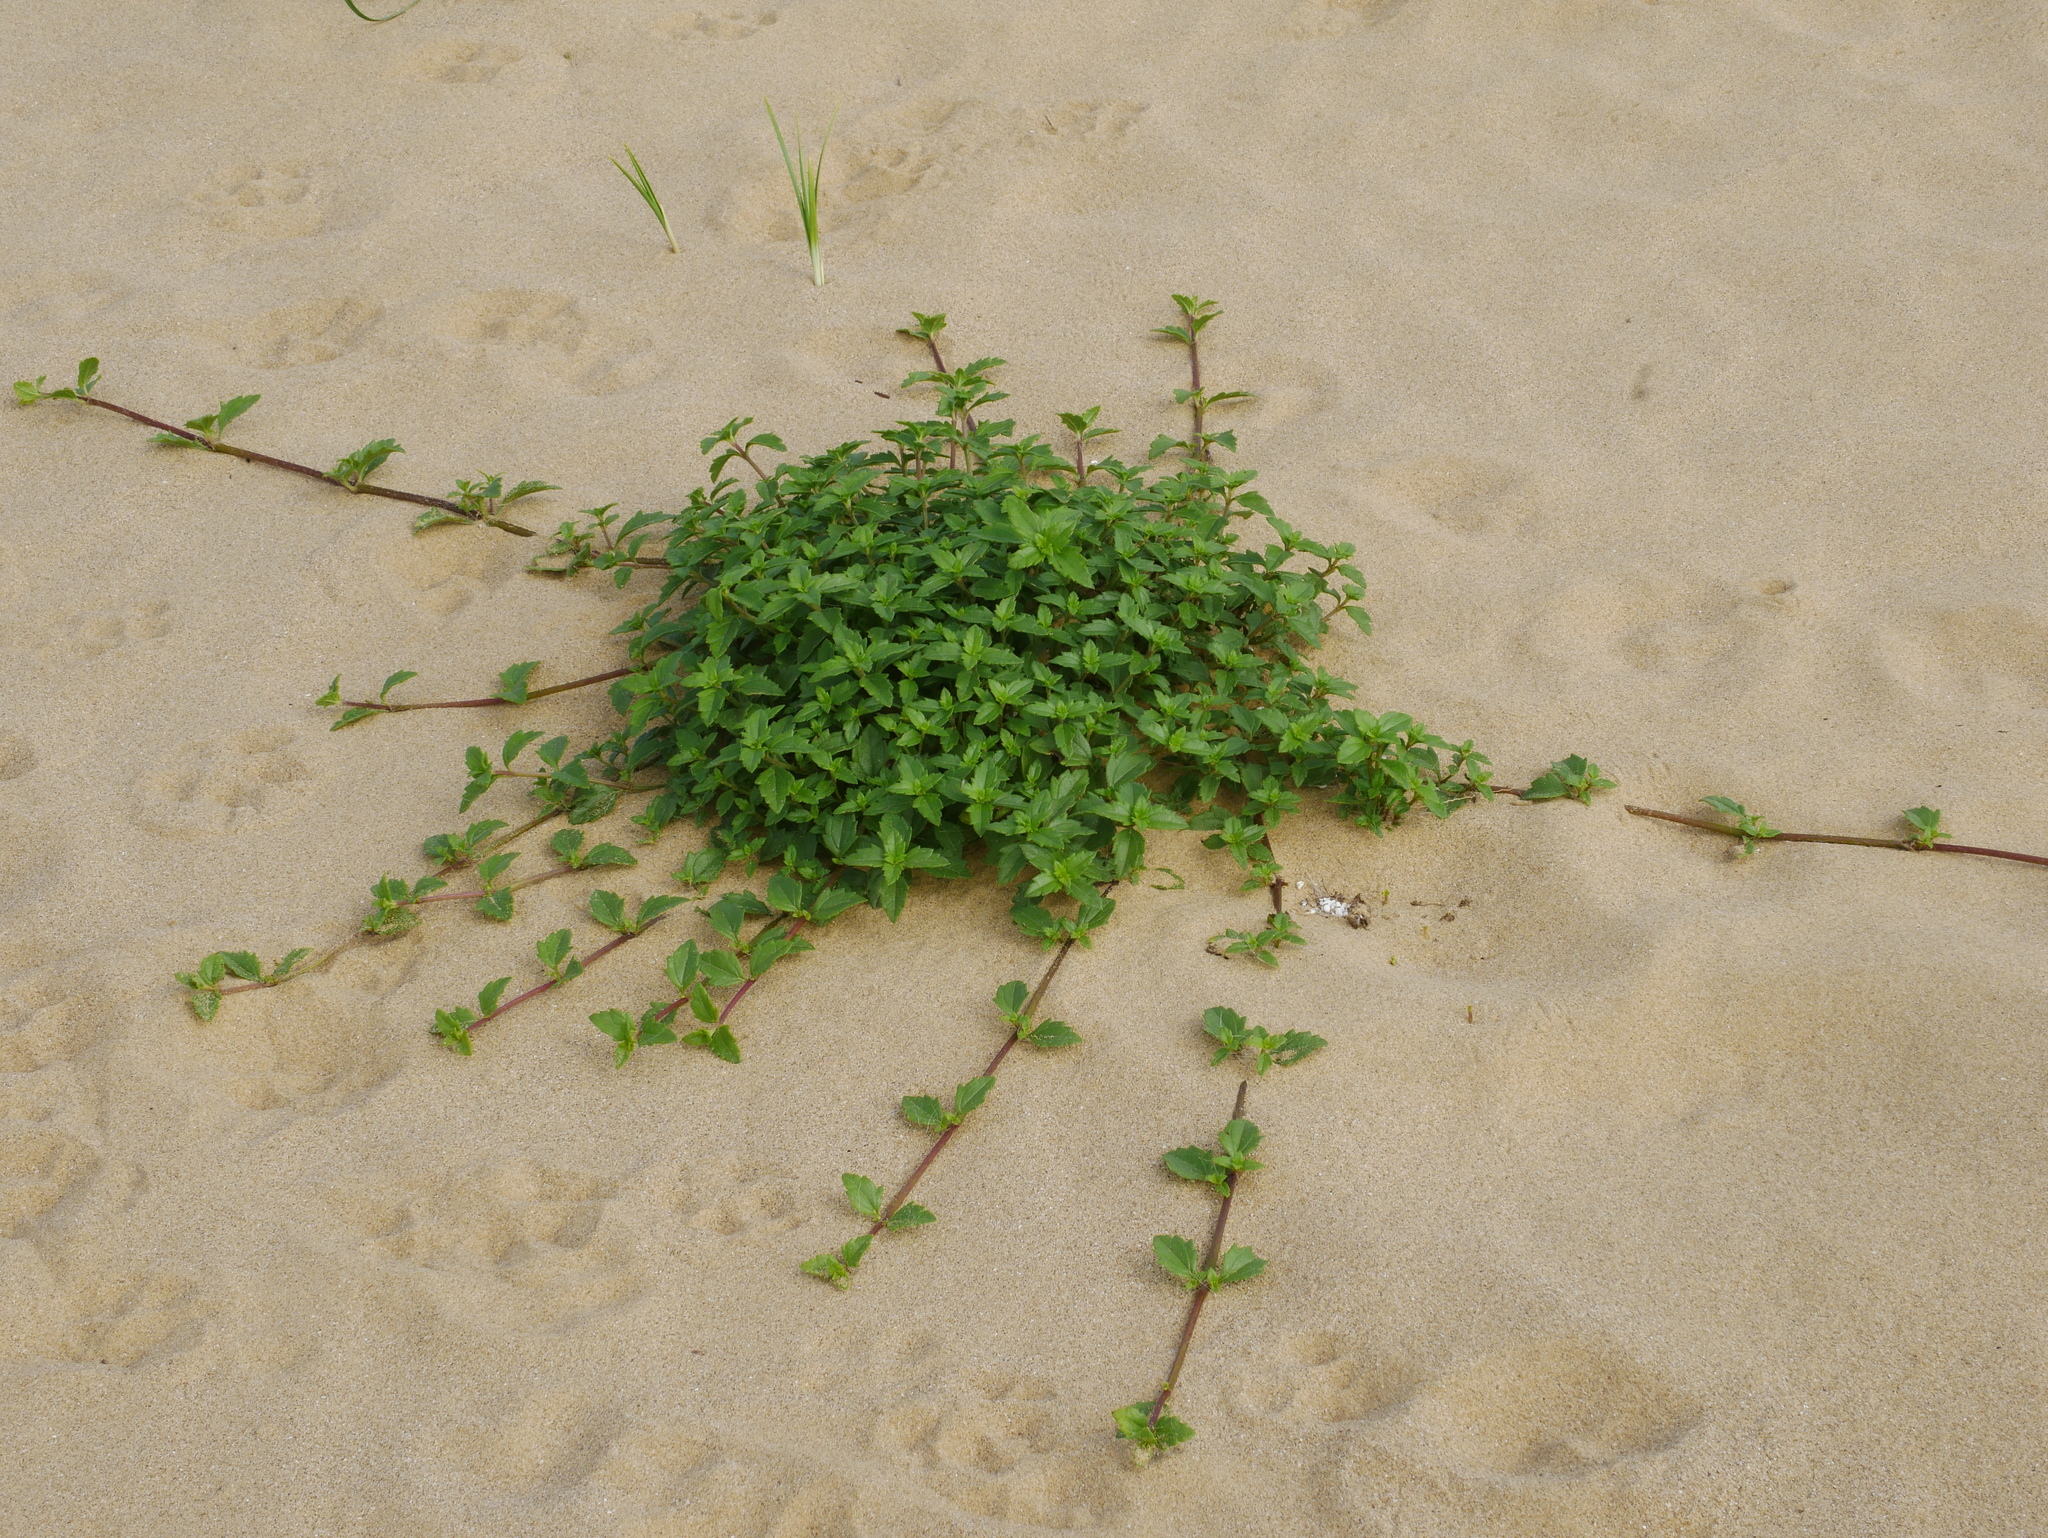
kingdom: Plantae
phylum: Tracheophyta
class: Magnoliopsida
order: Asterales
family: Asteraceae
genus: Melanthera
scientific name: Melanthera prostrata
